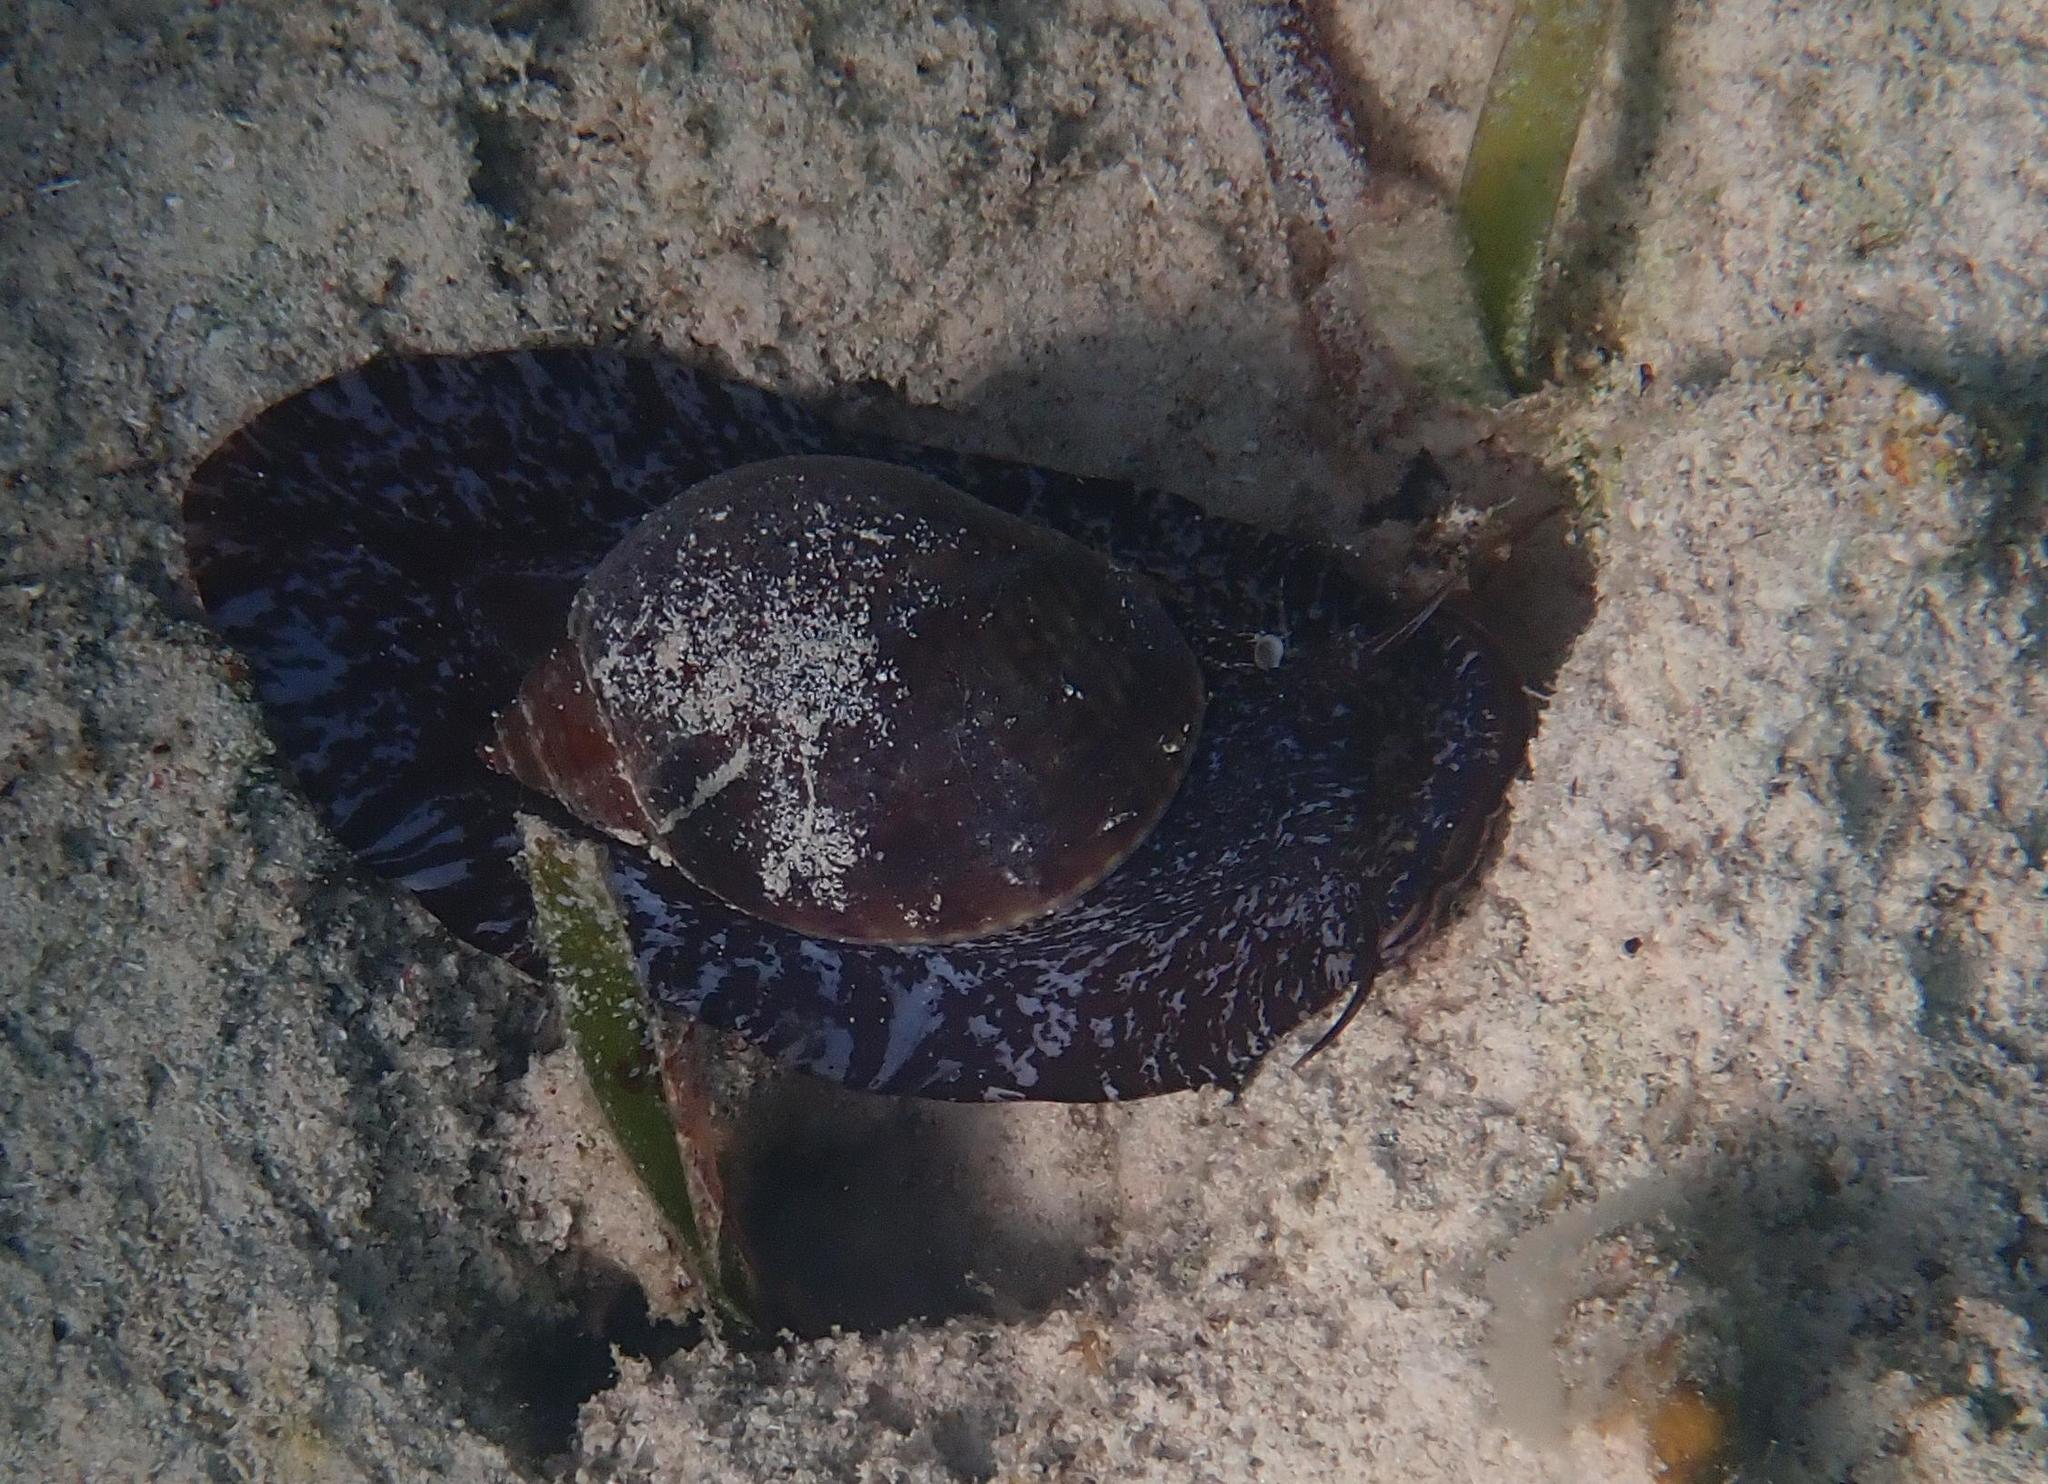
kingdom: Animalia
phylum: Mollusca
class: Gastropoda
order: Littorinimorpha
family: Tonnidae
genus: Tonna
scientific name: Tonna pennata
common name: Atlantic partridge tun
